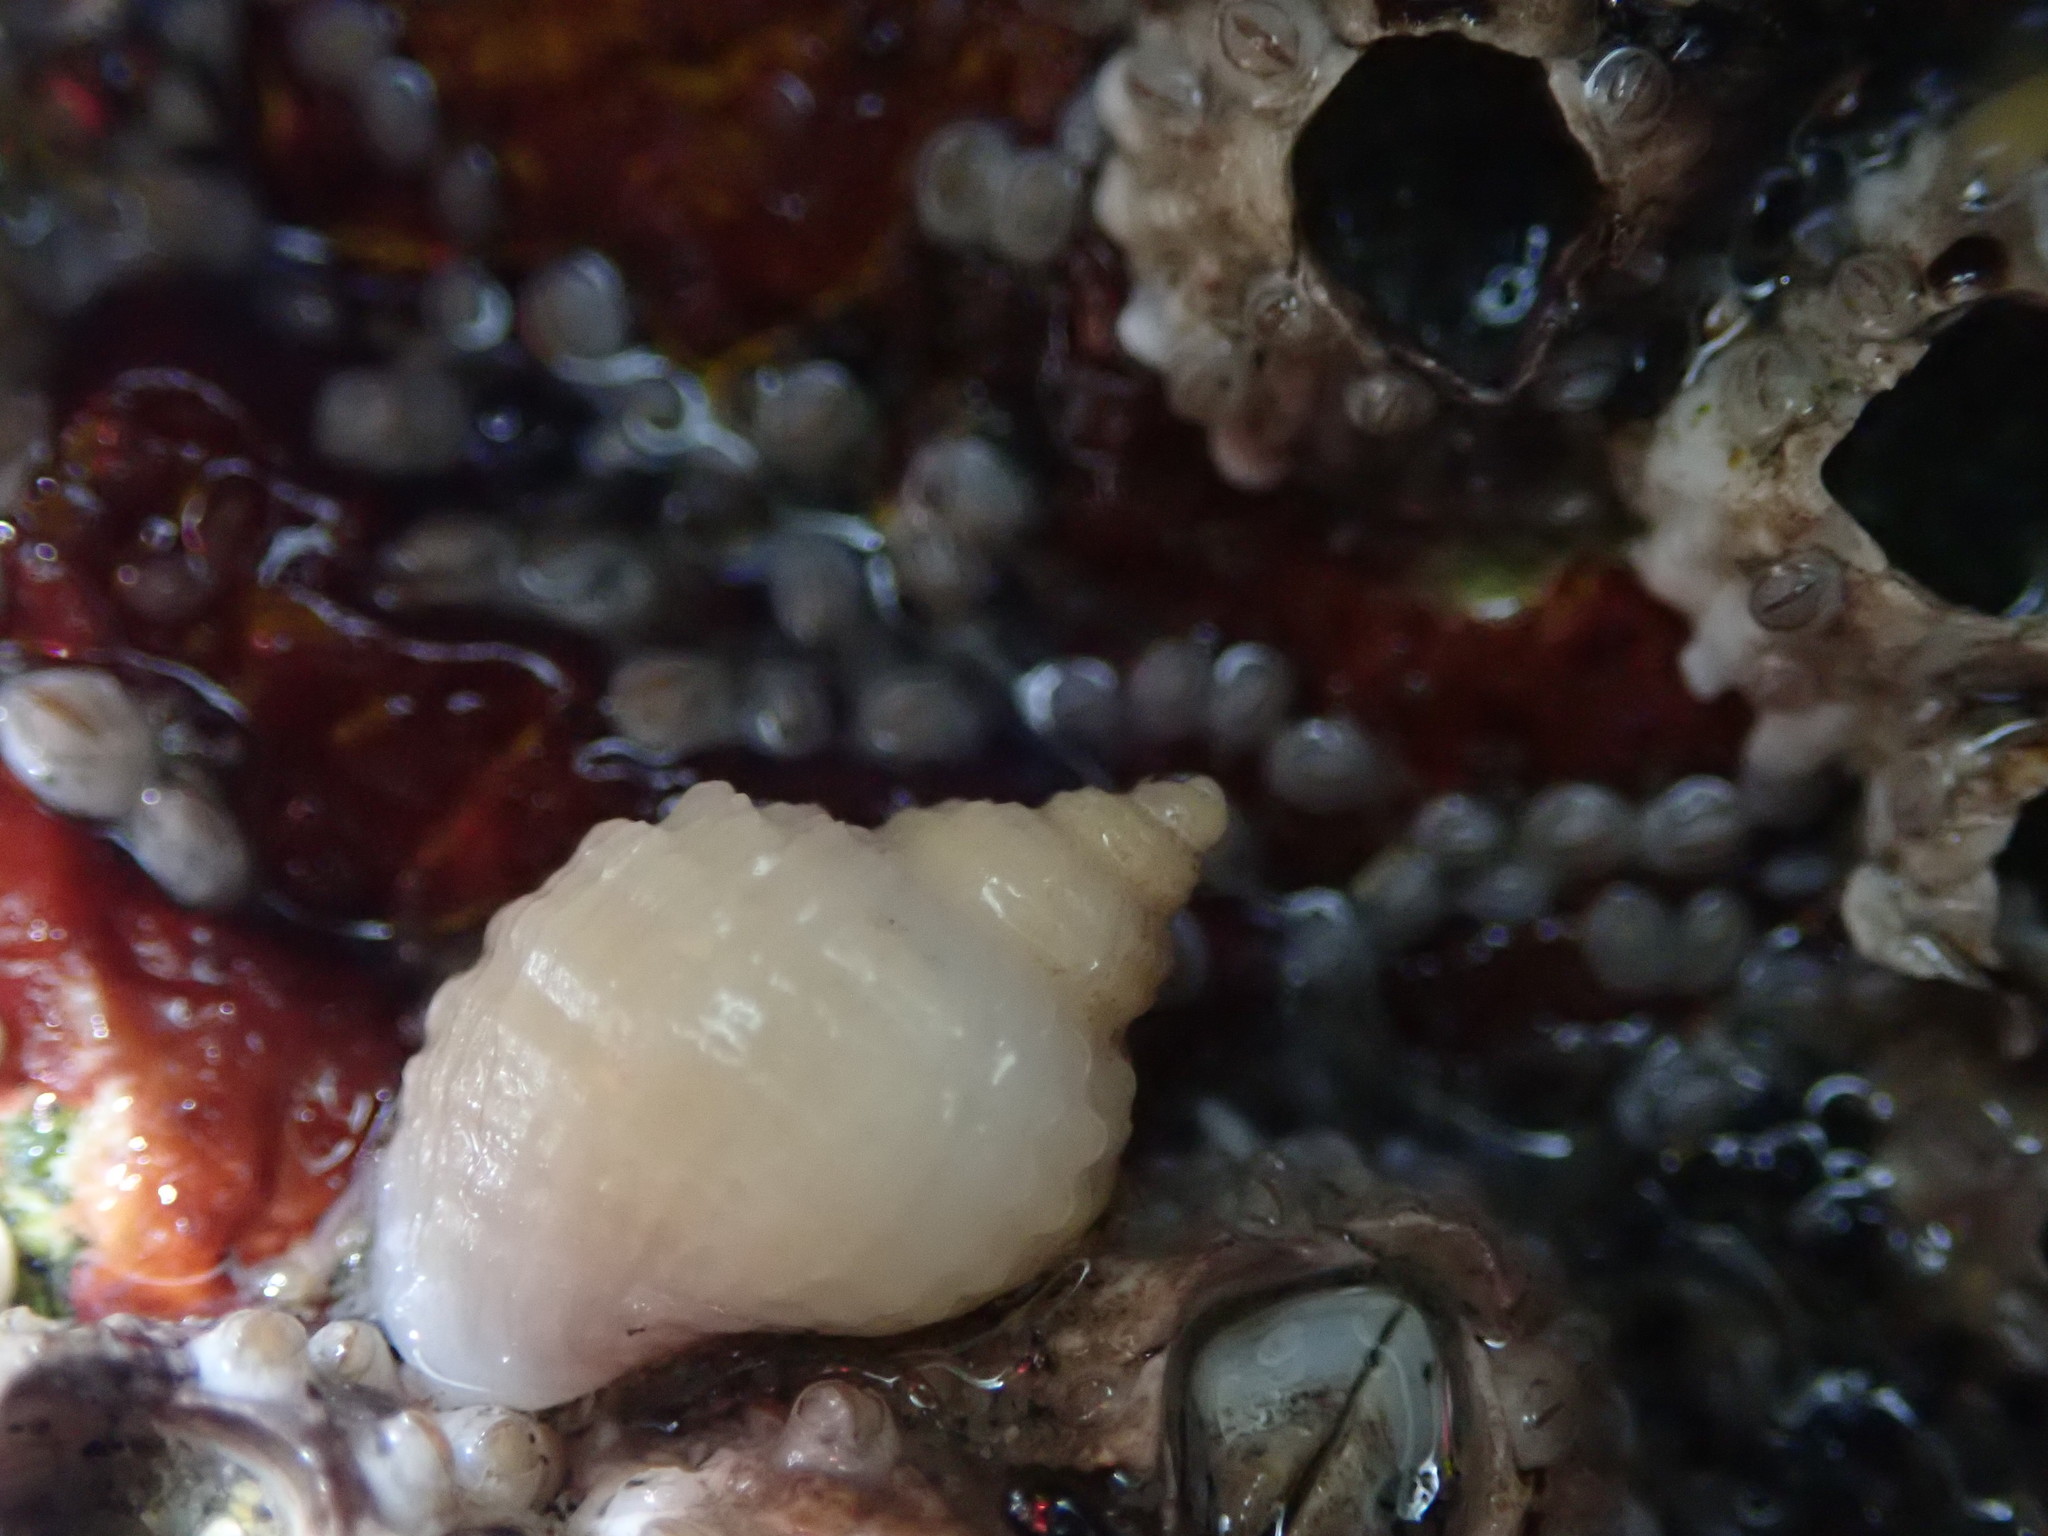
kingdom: Animalia
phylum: Mollusca
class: Gastropoda
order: Neogastropoda
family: Muricidae
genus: Nucella
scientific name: Nucella lapillus
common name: Dog whelk
